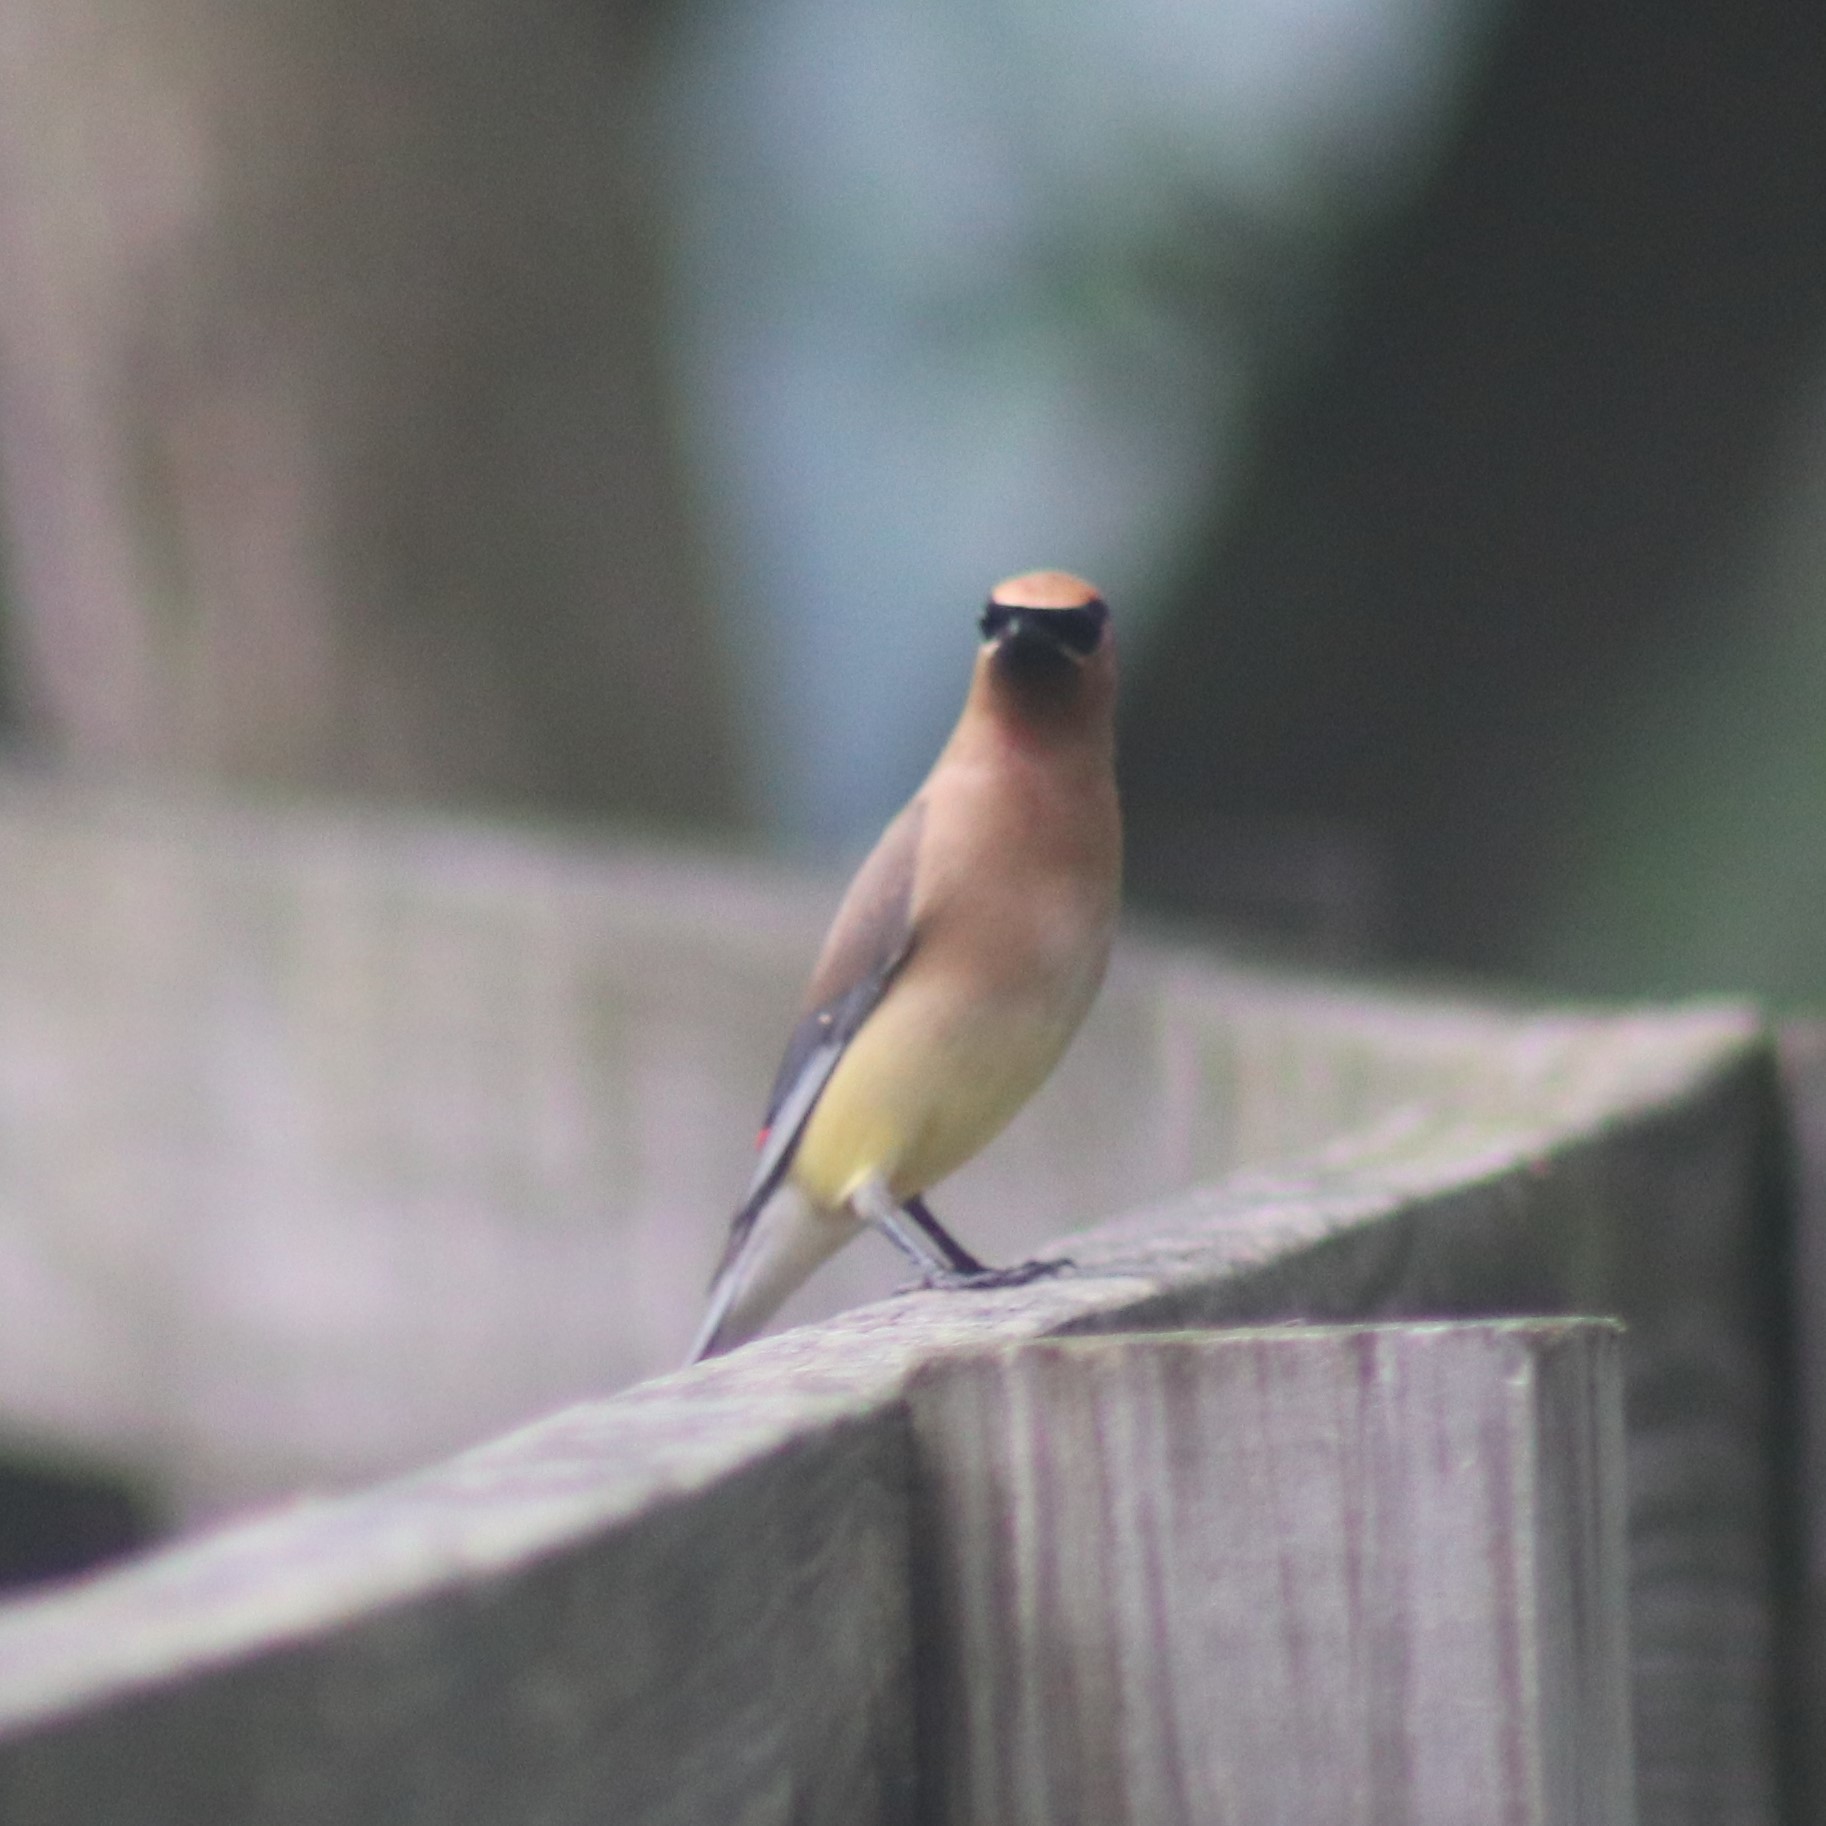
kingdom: Animalia
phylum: Chordata
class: Aves
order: Passeriformes
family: Bombycillidae
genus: Bombycilla
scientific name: Bombycilla cedrorum
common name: Cedar waxwing
